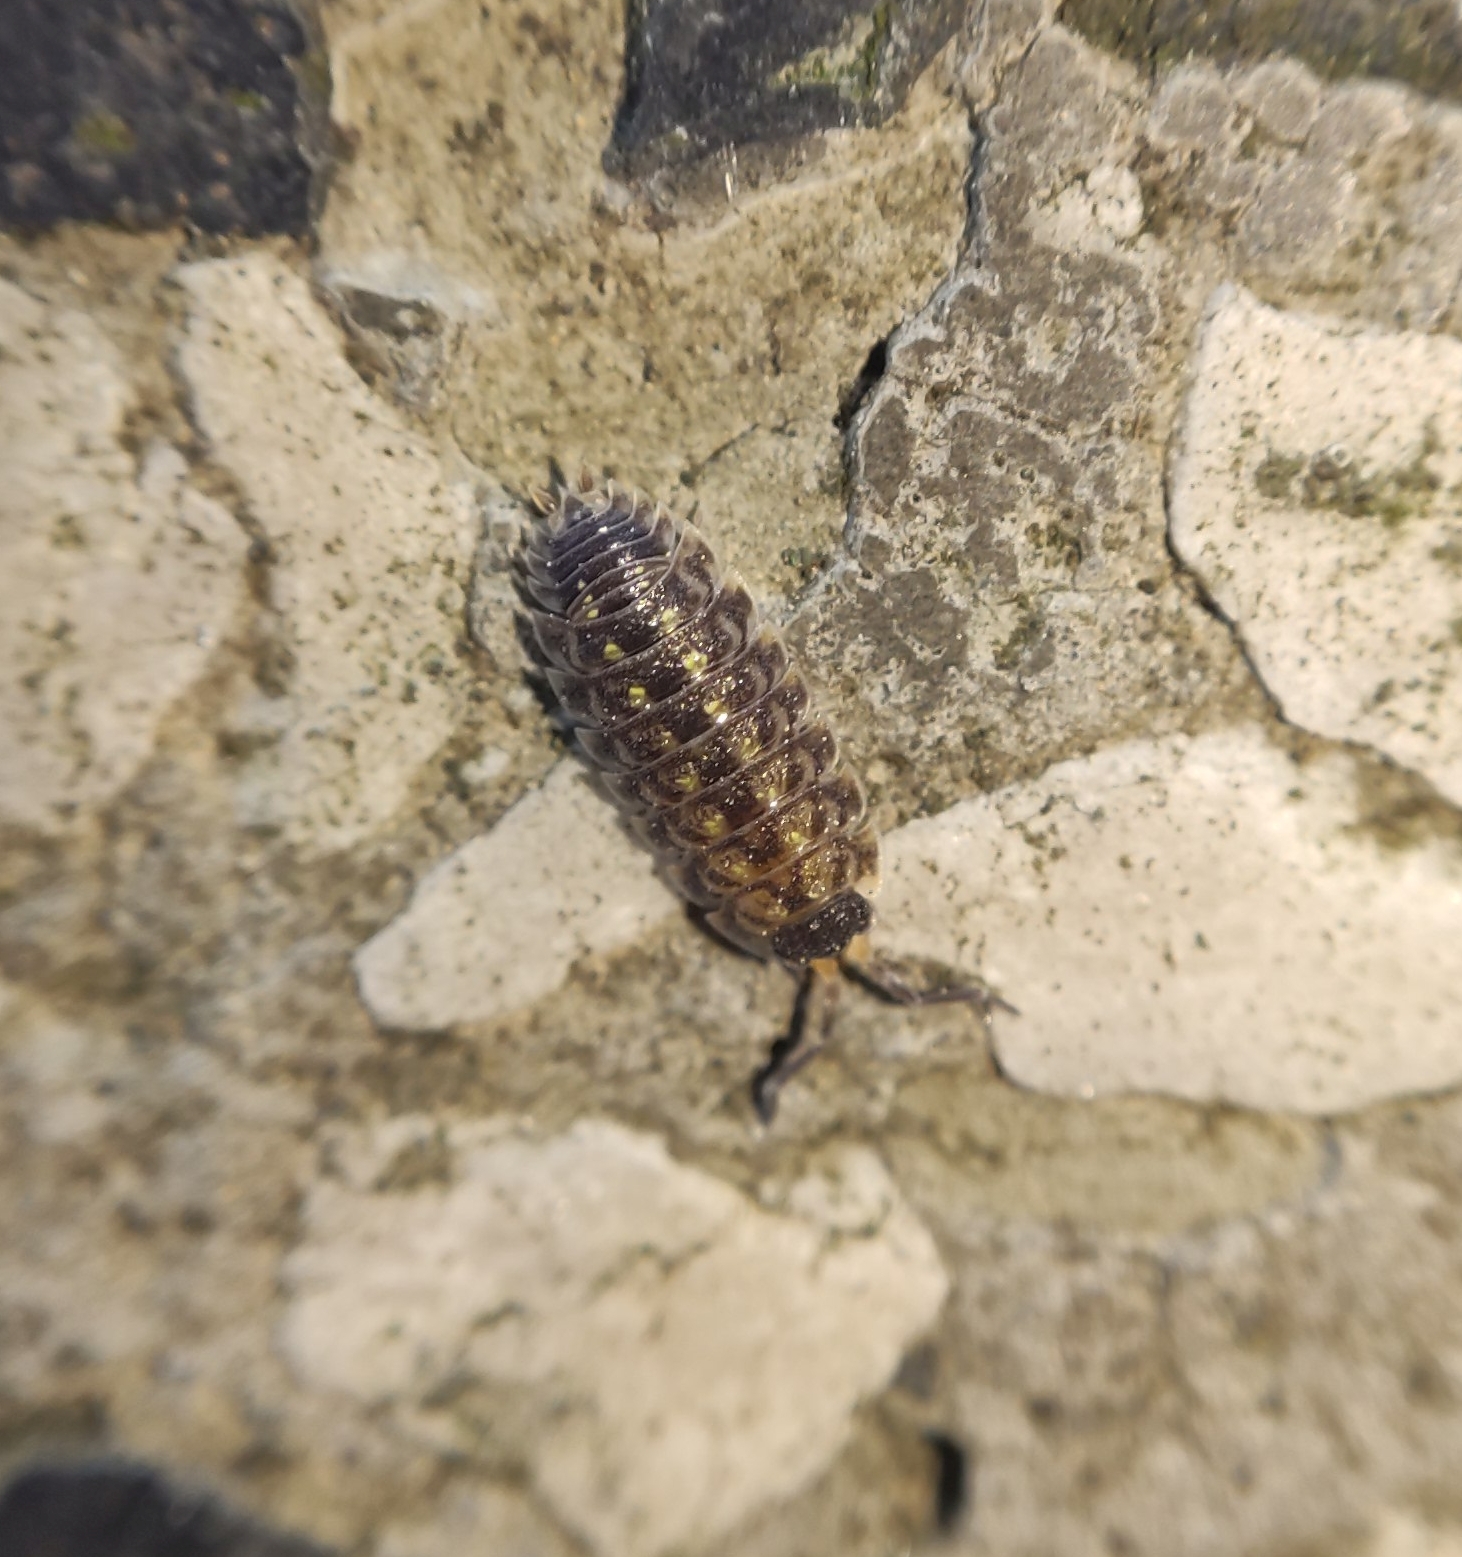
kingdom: Animalia
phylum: Arthropoda
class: Malacostraca
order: Isopoda
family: Porcellionidae
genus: Porcellio
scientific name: Porcellio spinicornis
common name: Painted woodlouse
